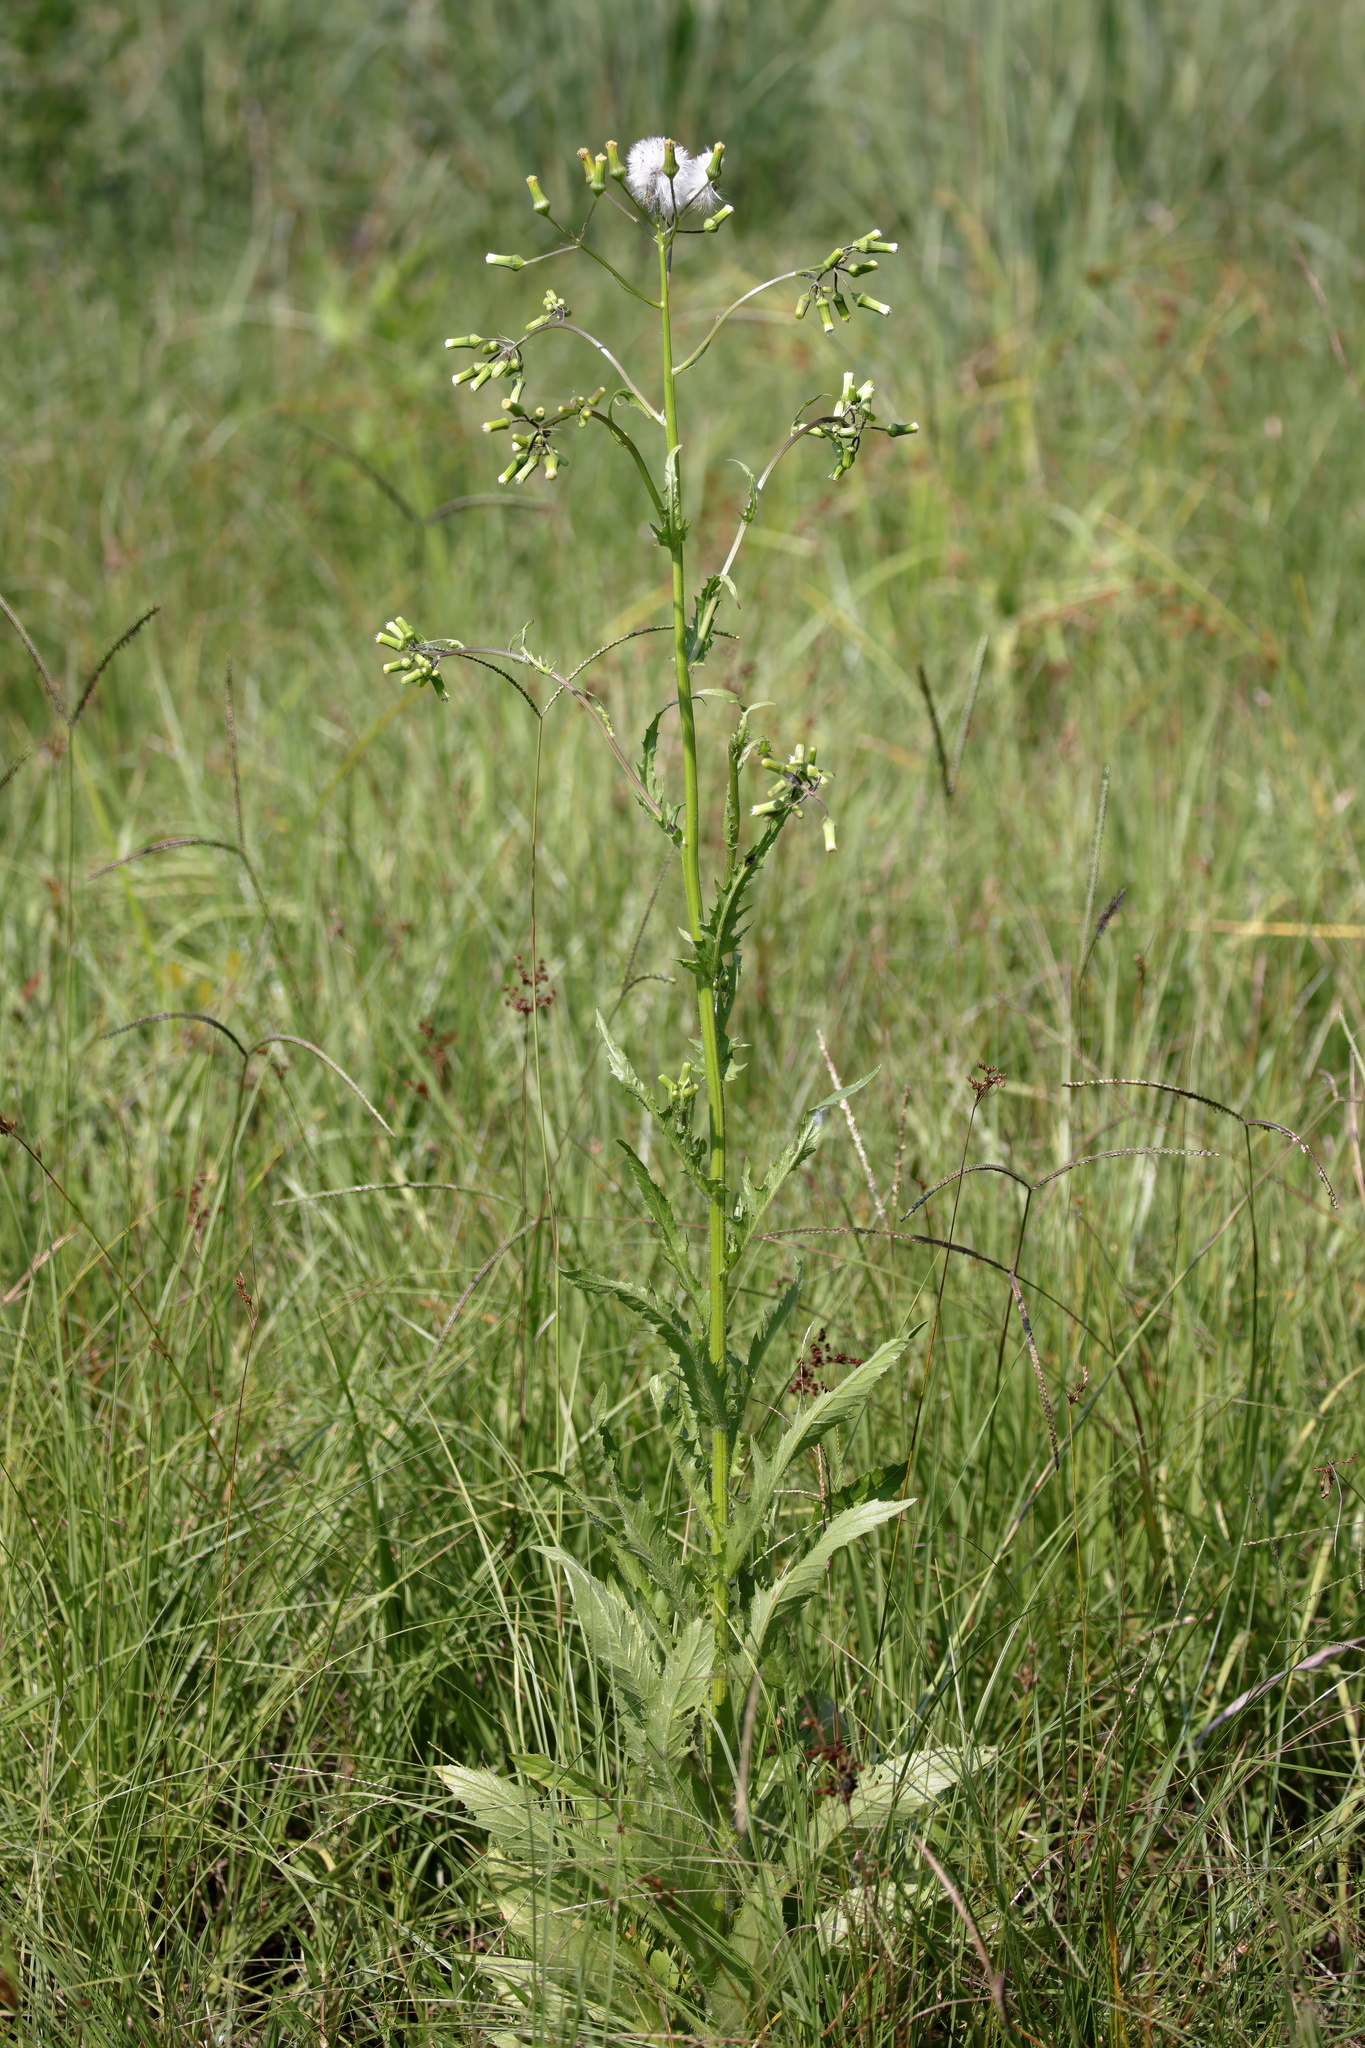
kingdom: Plantae
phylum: Tracheophyta
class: Magnoliopsida
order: Asterales
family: Asteraceae
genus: Erechtites
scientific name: Erechtites hieraciifolius
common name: American burnweed
